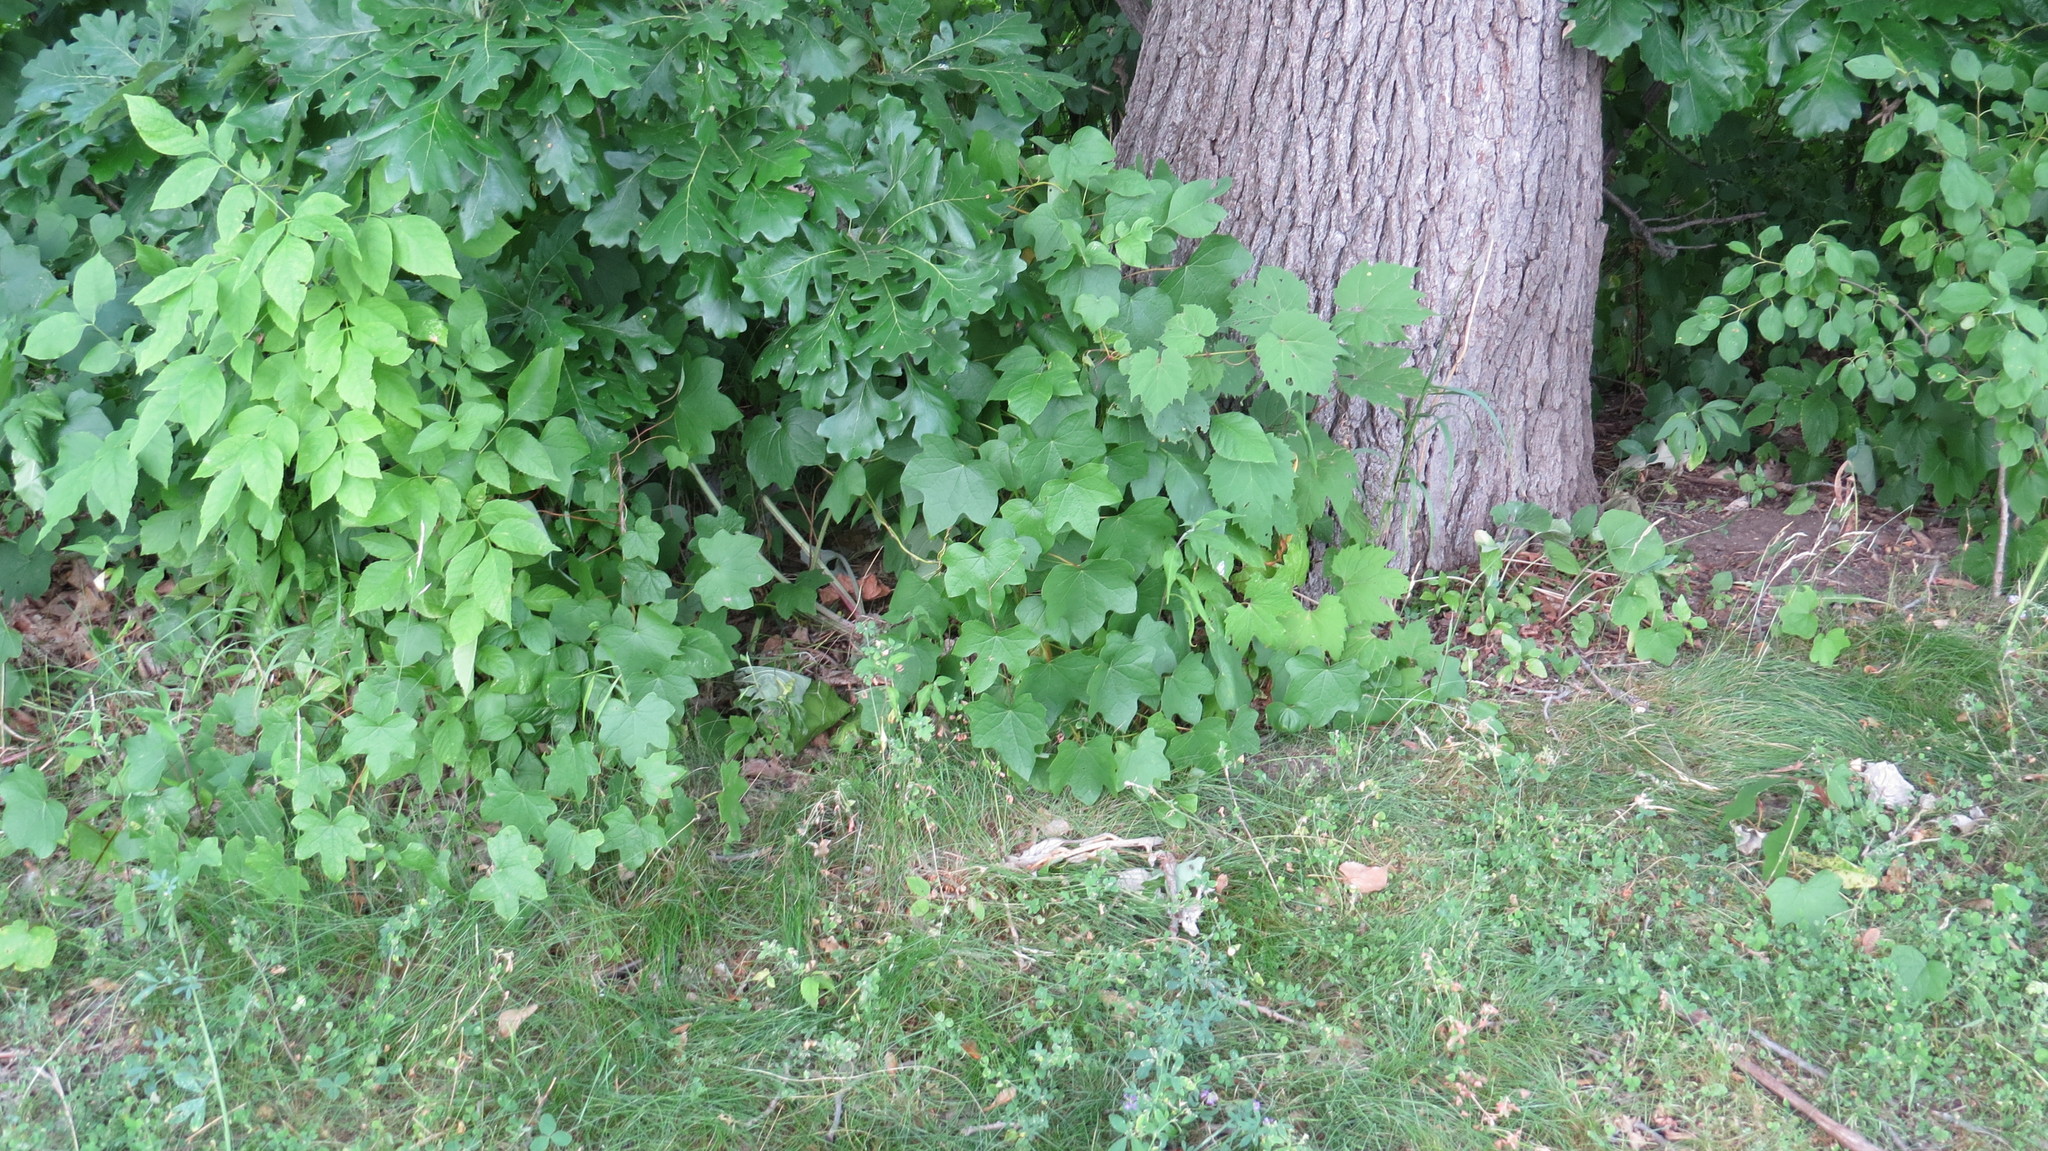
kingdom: Plantae
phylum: Tracheophyta
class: Magnoliopsida
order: Ranunculales
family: Menispermaceae
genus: Menispermum
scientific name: Menispermum canadense
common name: Moonseed
